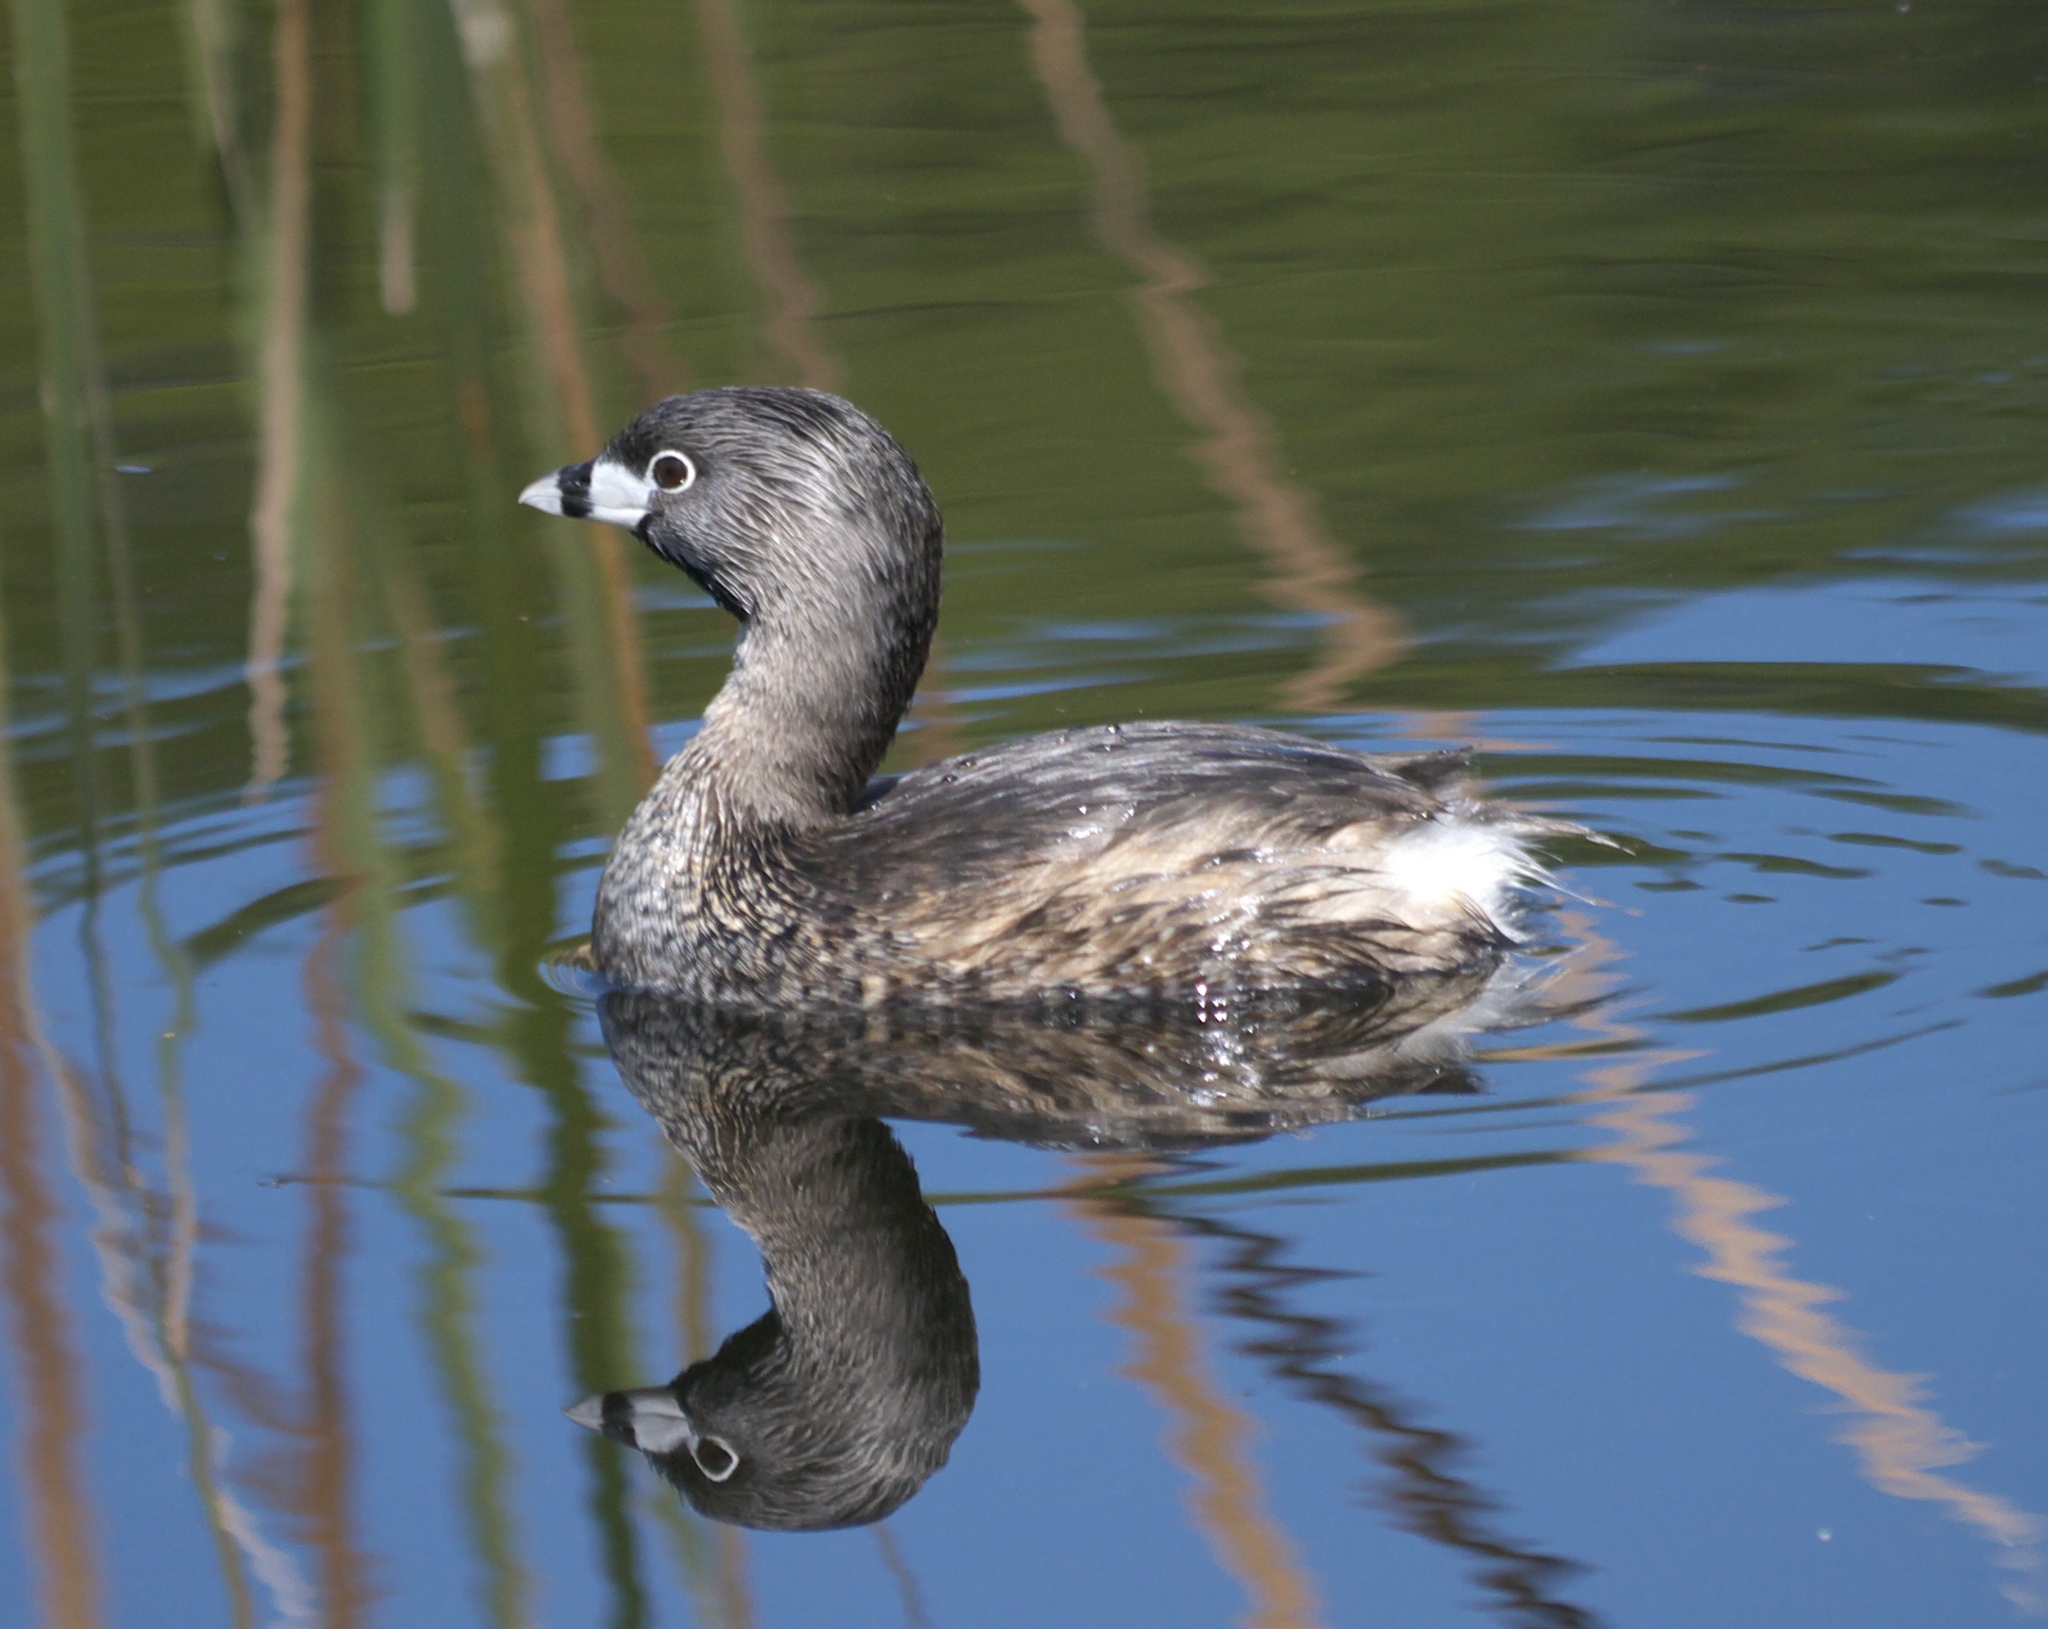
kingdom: Animalia
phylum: Chordata
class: Aves
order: Podicipediformes
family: Podicipedidae
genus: Podilymbus
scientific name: Podilymbus podiceps
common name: Pied-billed grebe
